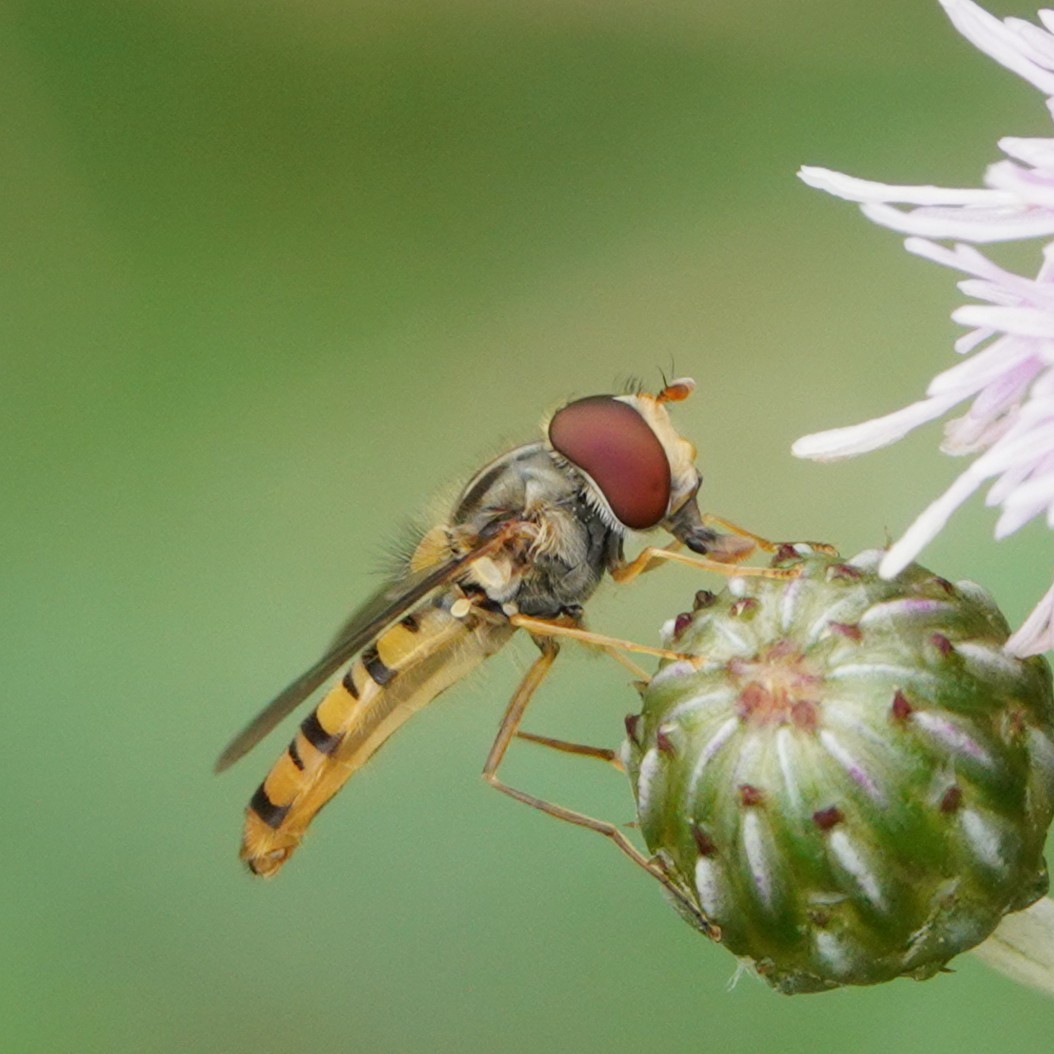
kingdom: Animalia
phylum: Arthropoda
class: Insecta
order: Diptera
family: Syrphidae
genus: Episyrphus
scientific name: Episyrphus balteatus
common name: Marmalade hoverfly
